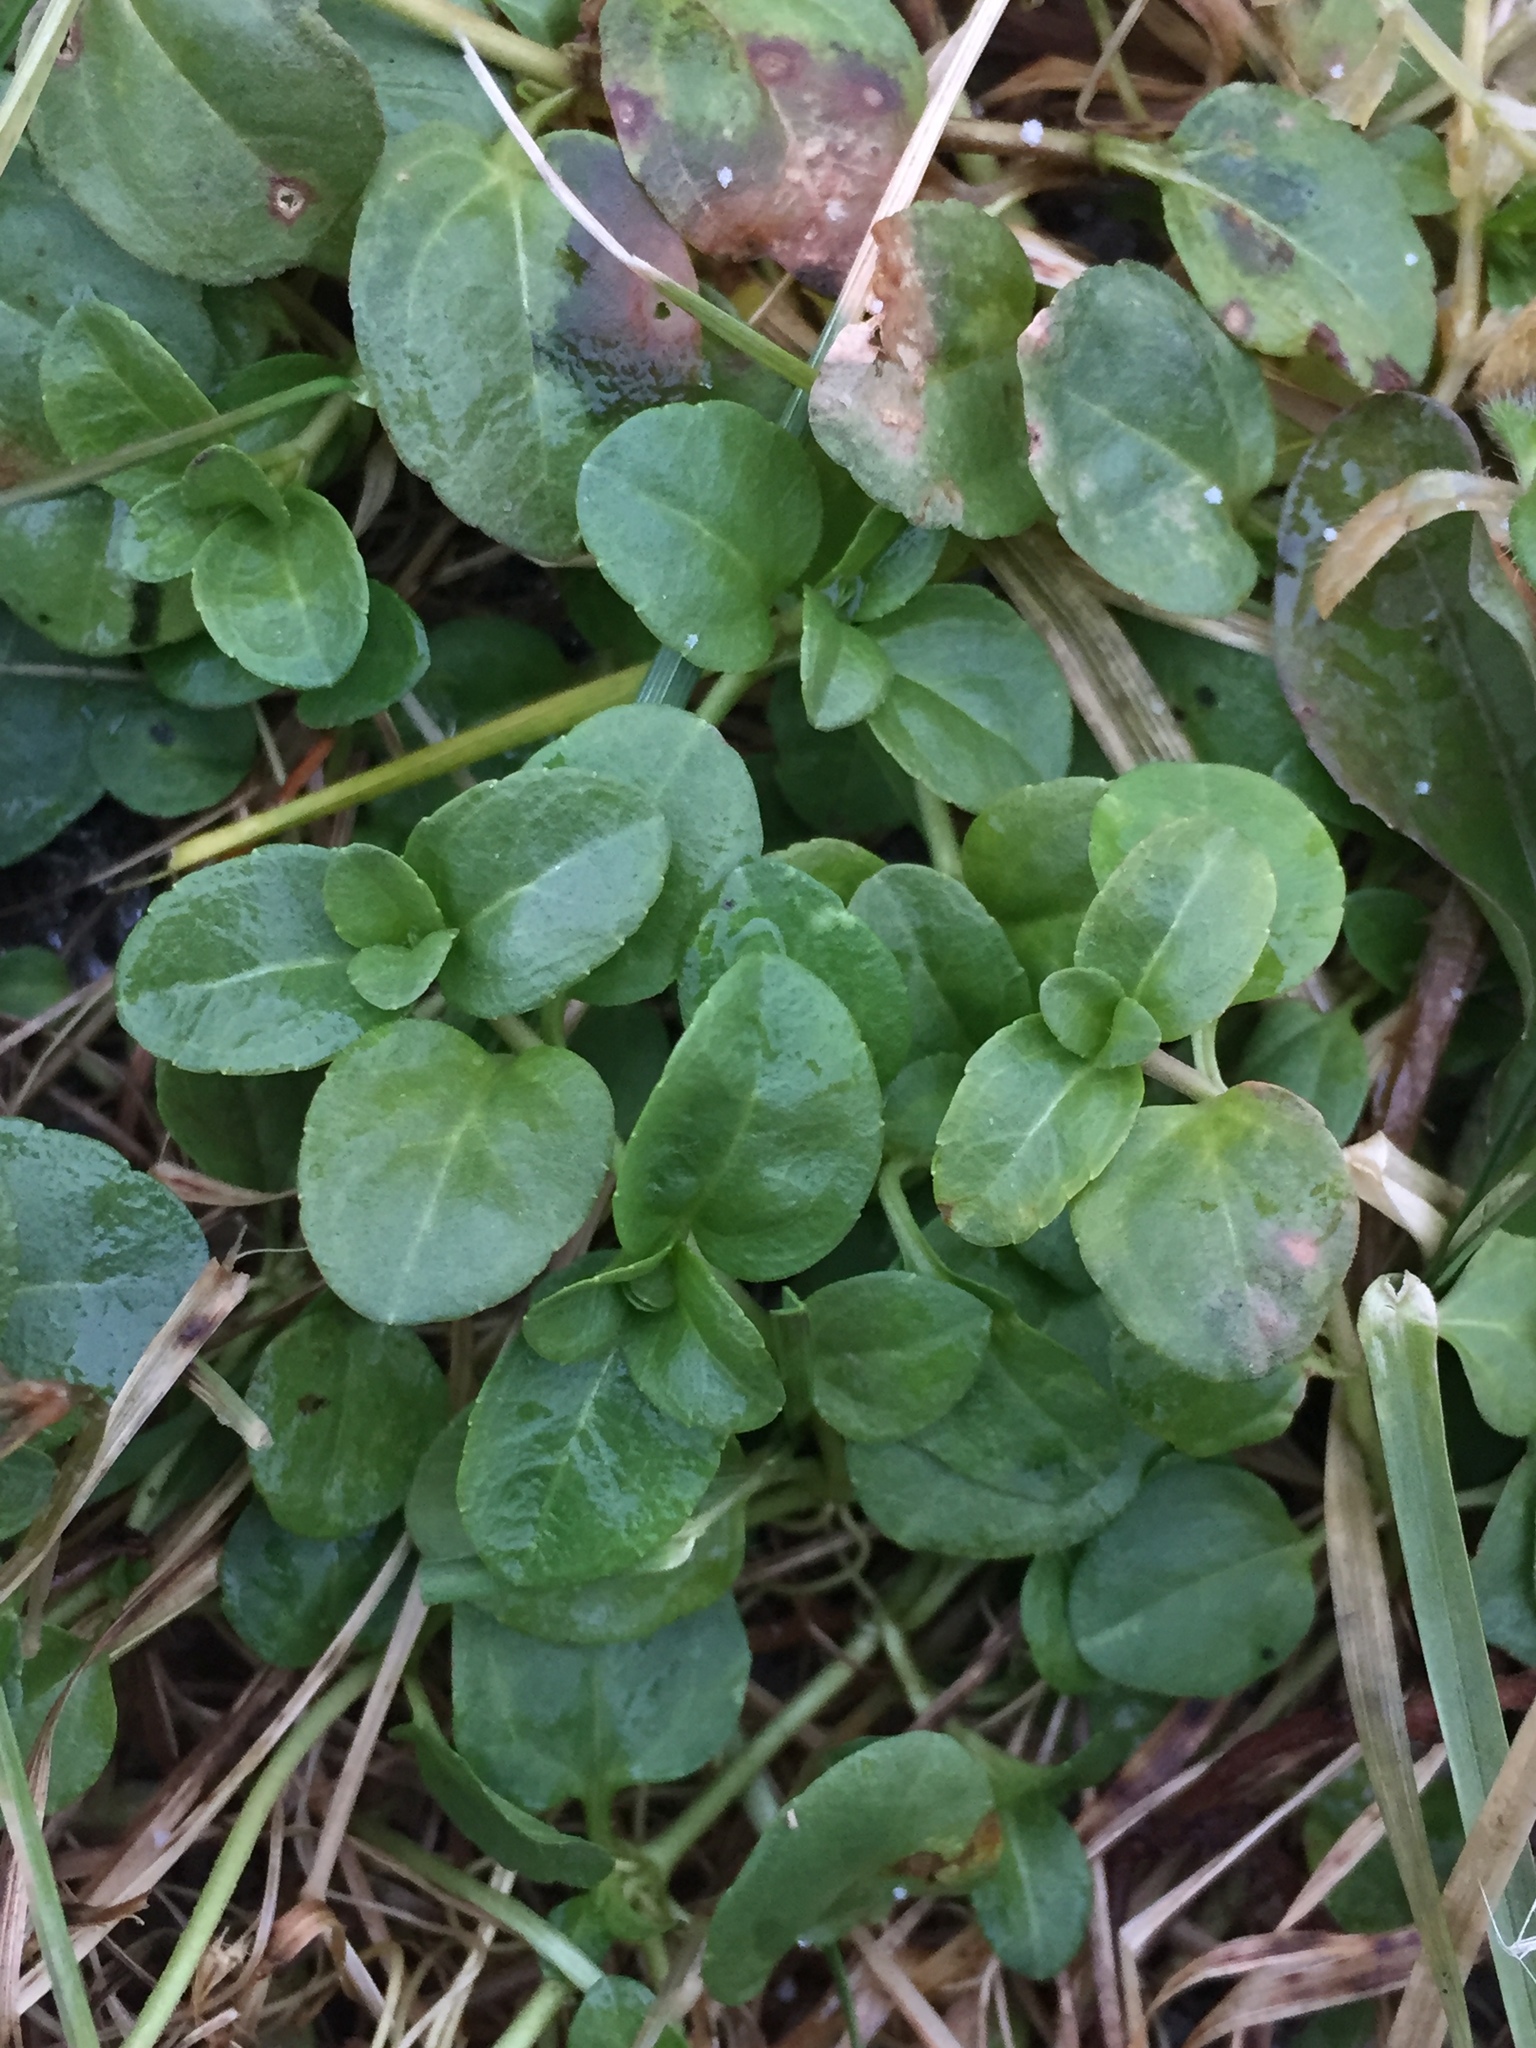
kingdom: Plantae
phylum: Tracheophyta
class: Magnoliopsida
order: Lamiales
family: Plantaginaceae
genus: Veronica
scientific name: Veronica serpyllifolia
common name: Thyme-leaved speedwell
